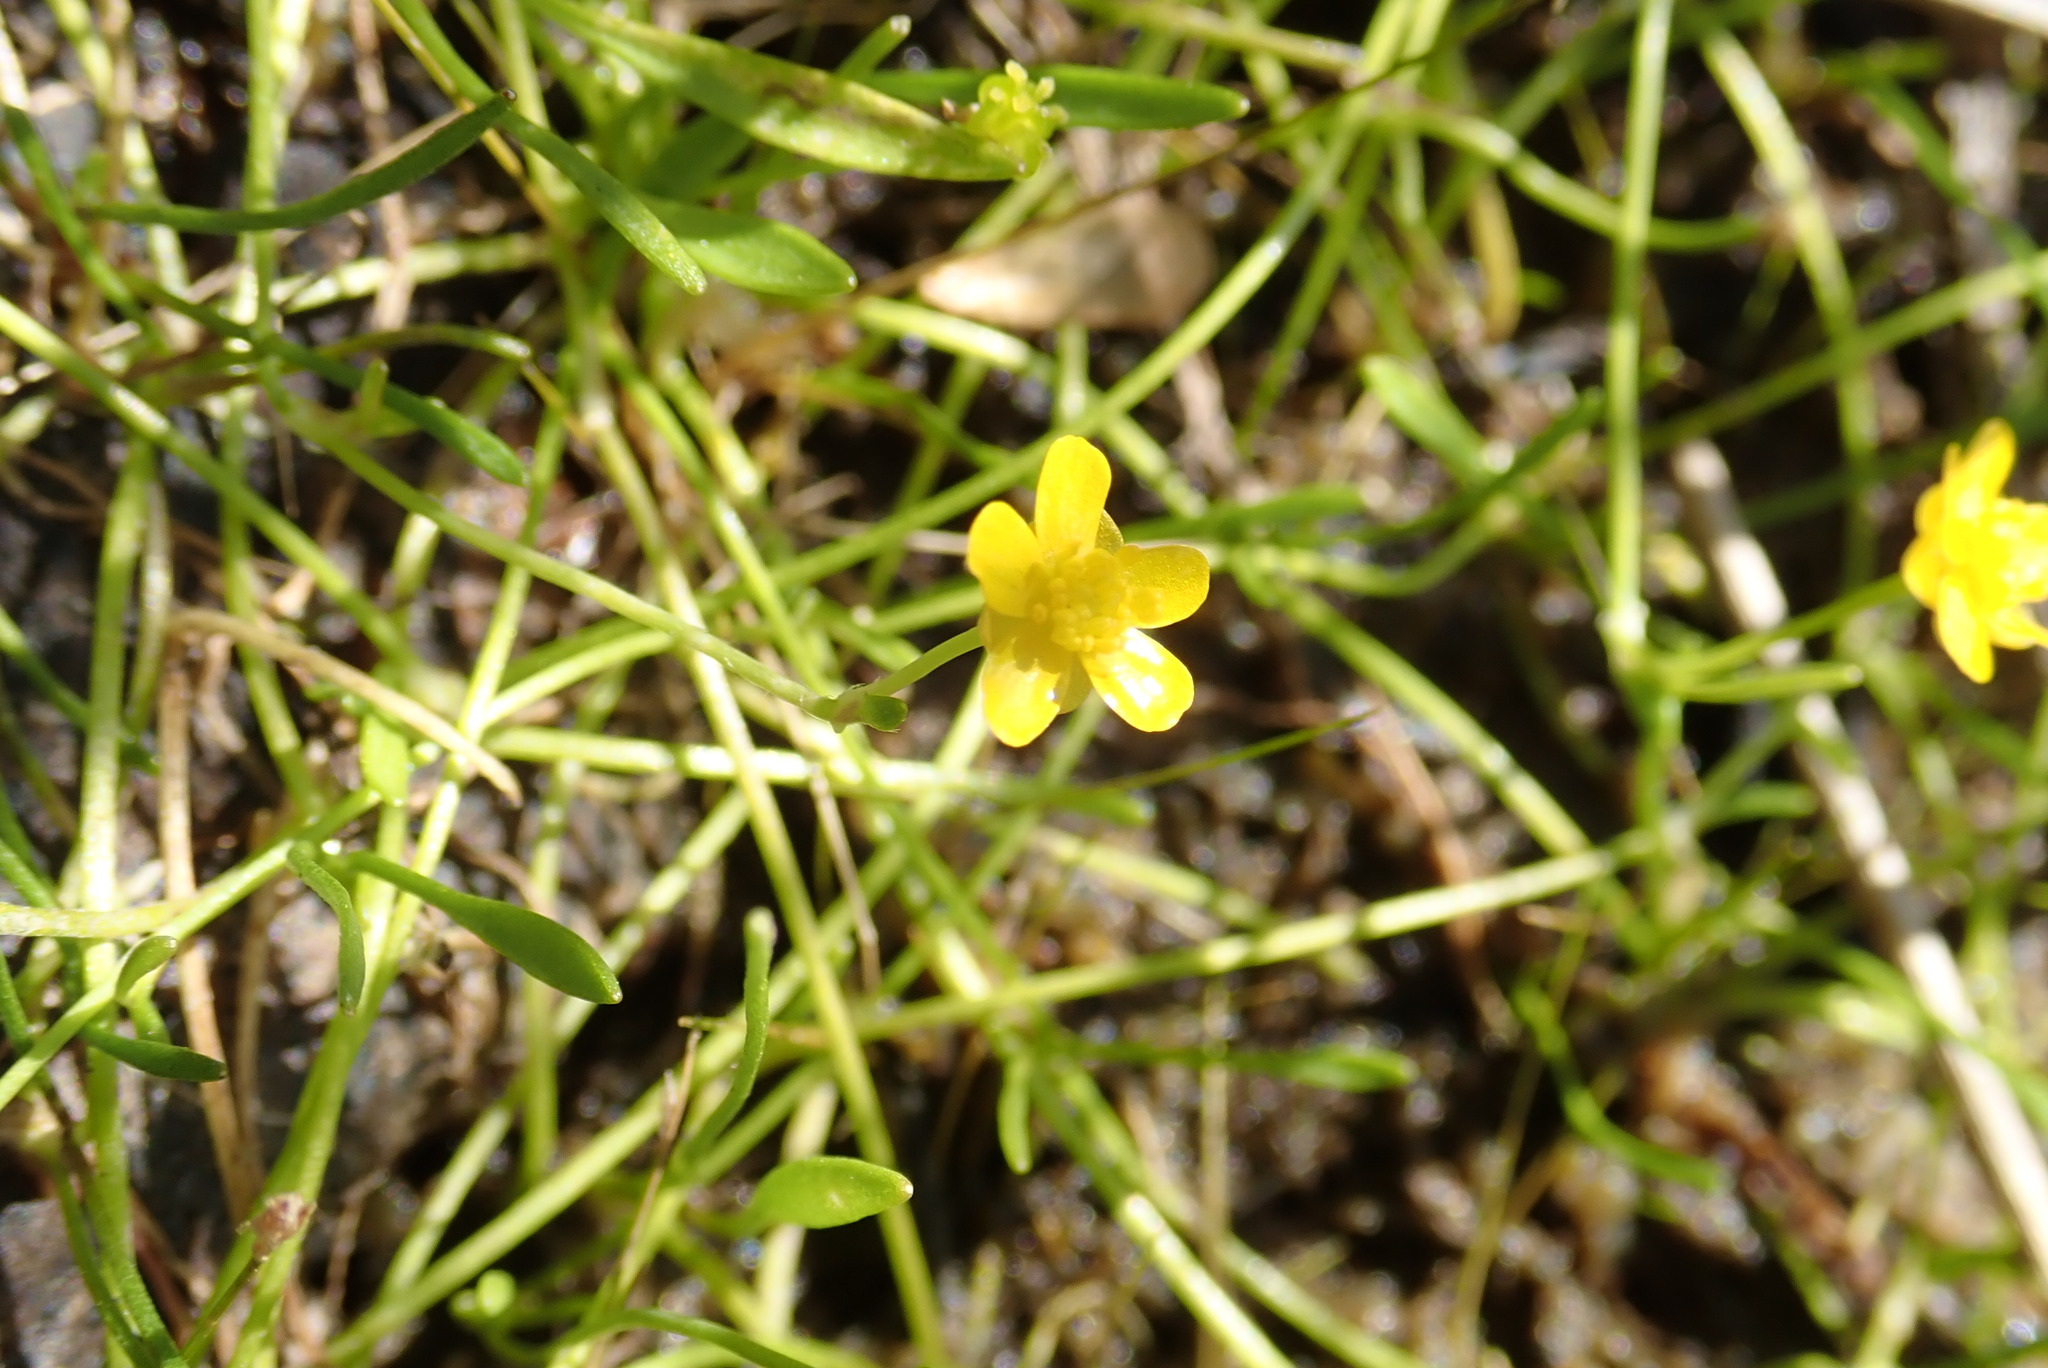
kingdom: Plantae
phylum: Tracheophyta
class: Magnoliopsida
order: Ranunculales
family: Ranunculaceae
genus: Ranunculus
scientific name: Ranunculus reptans
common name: Creeping spearwort
